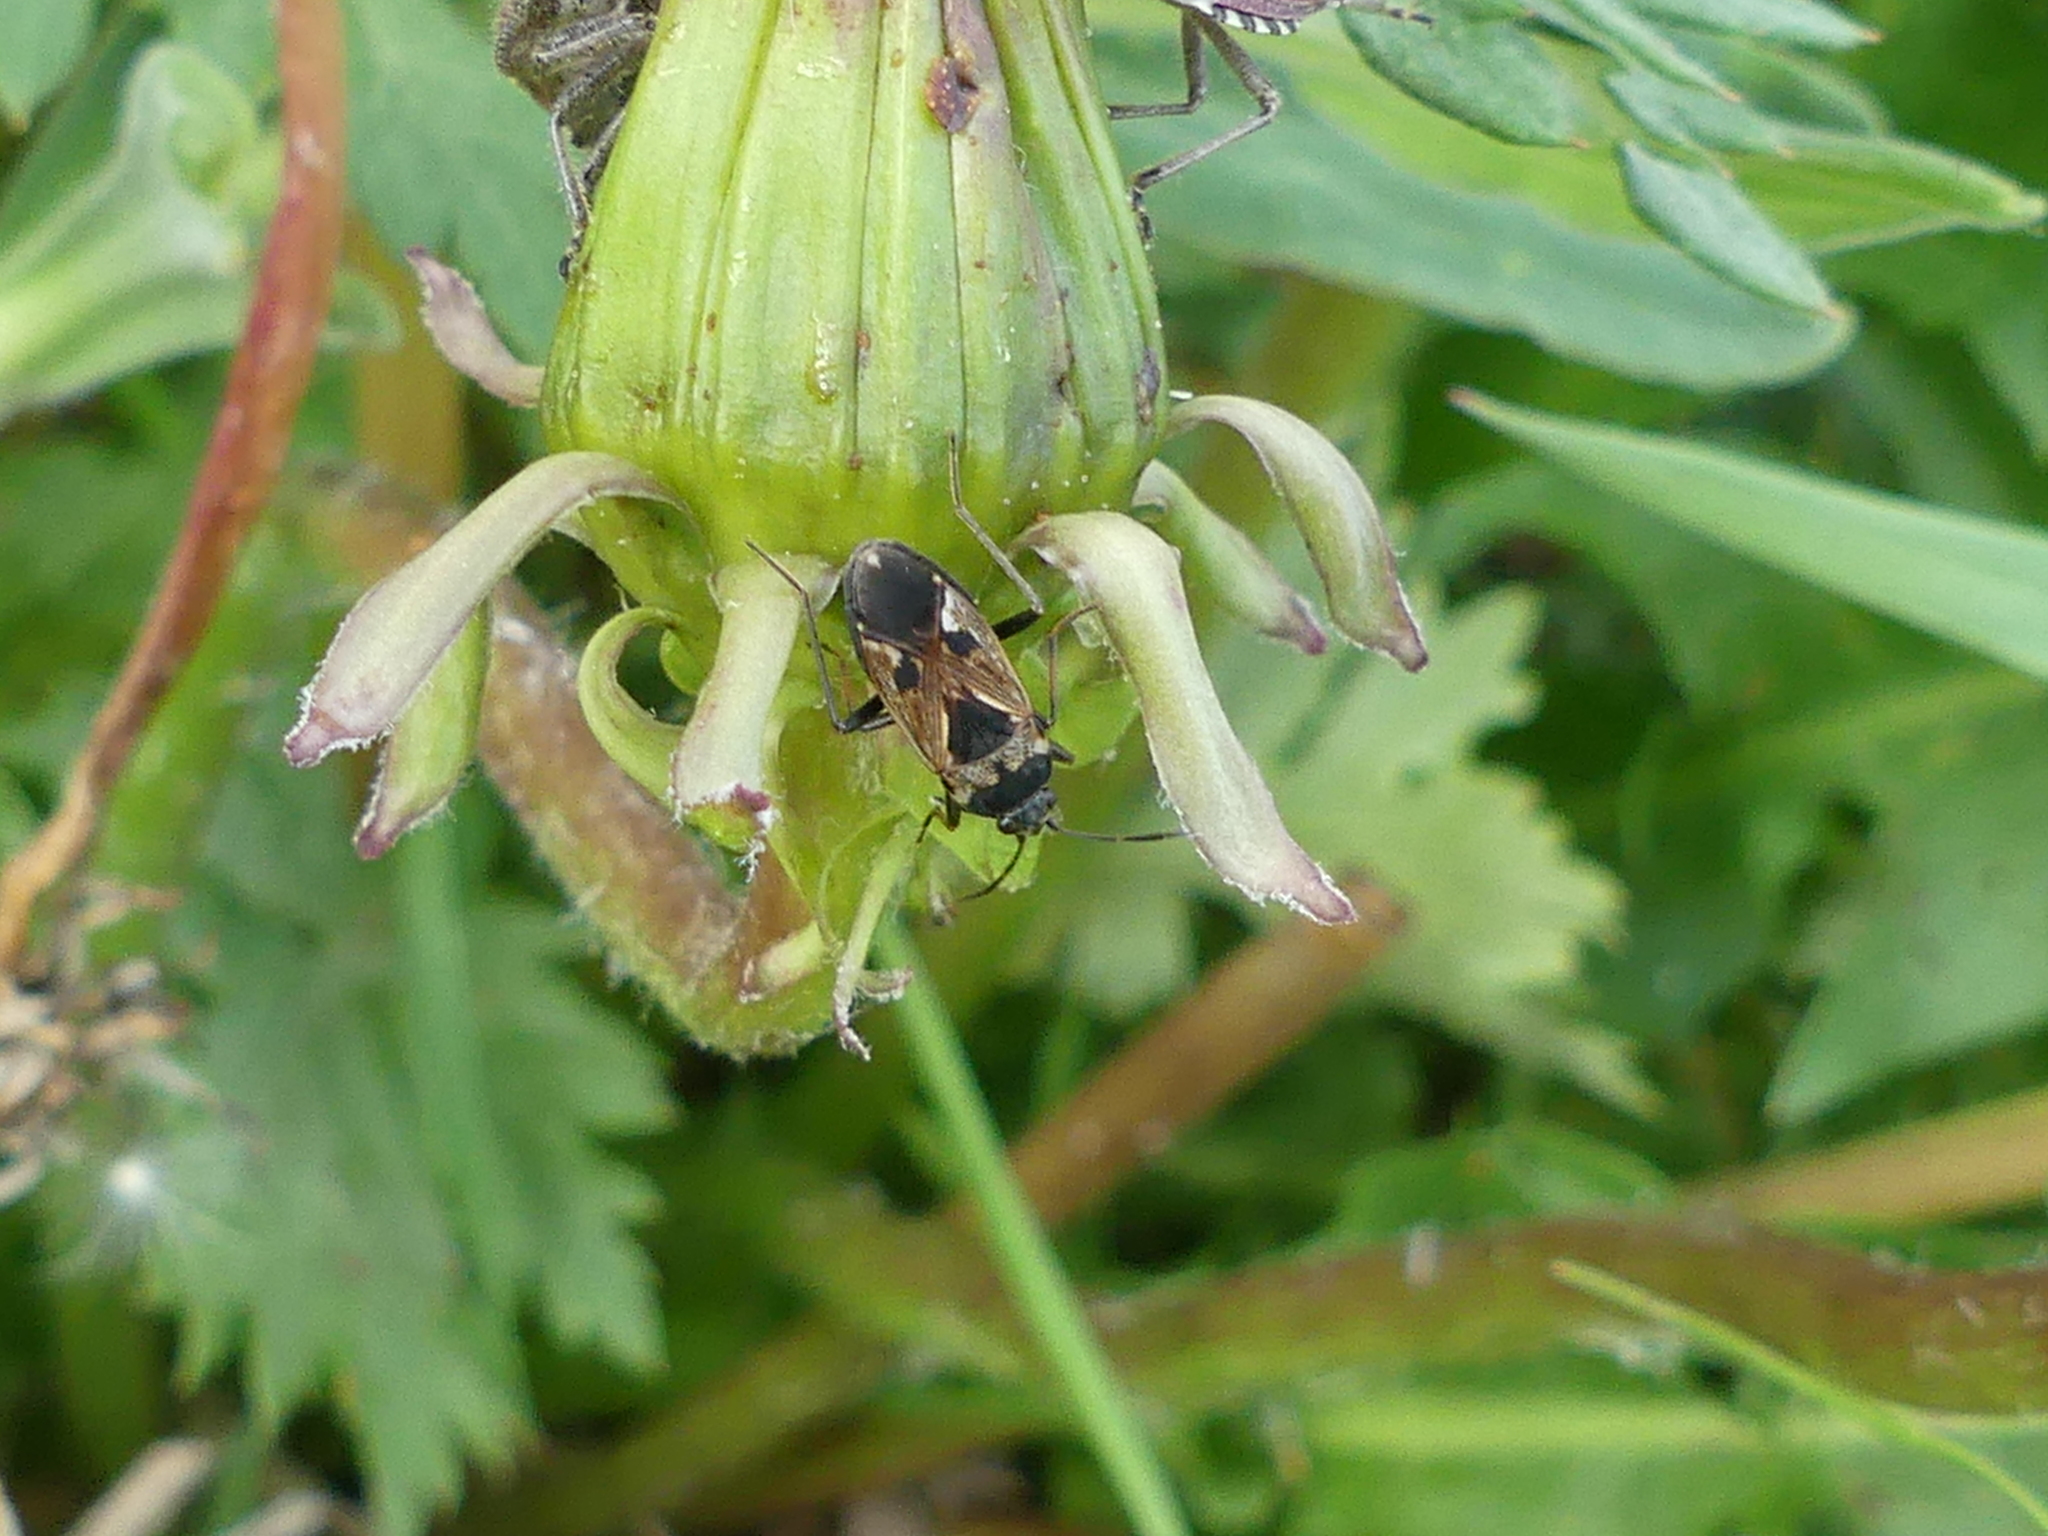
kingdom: Animalia
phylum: Arthropoda
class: Insecta
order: Hemiptera
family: Rhyparochromidae
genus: Rhyparochromus
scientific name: Rhyparochromus vulgaris
